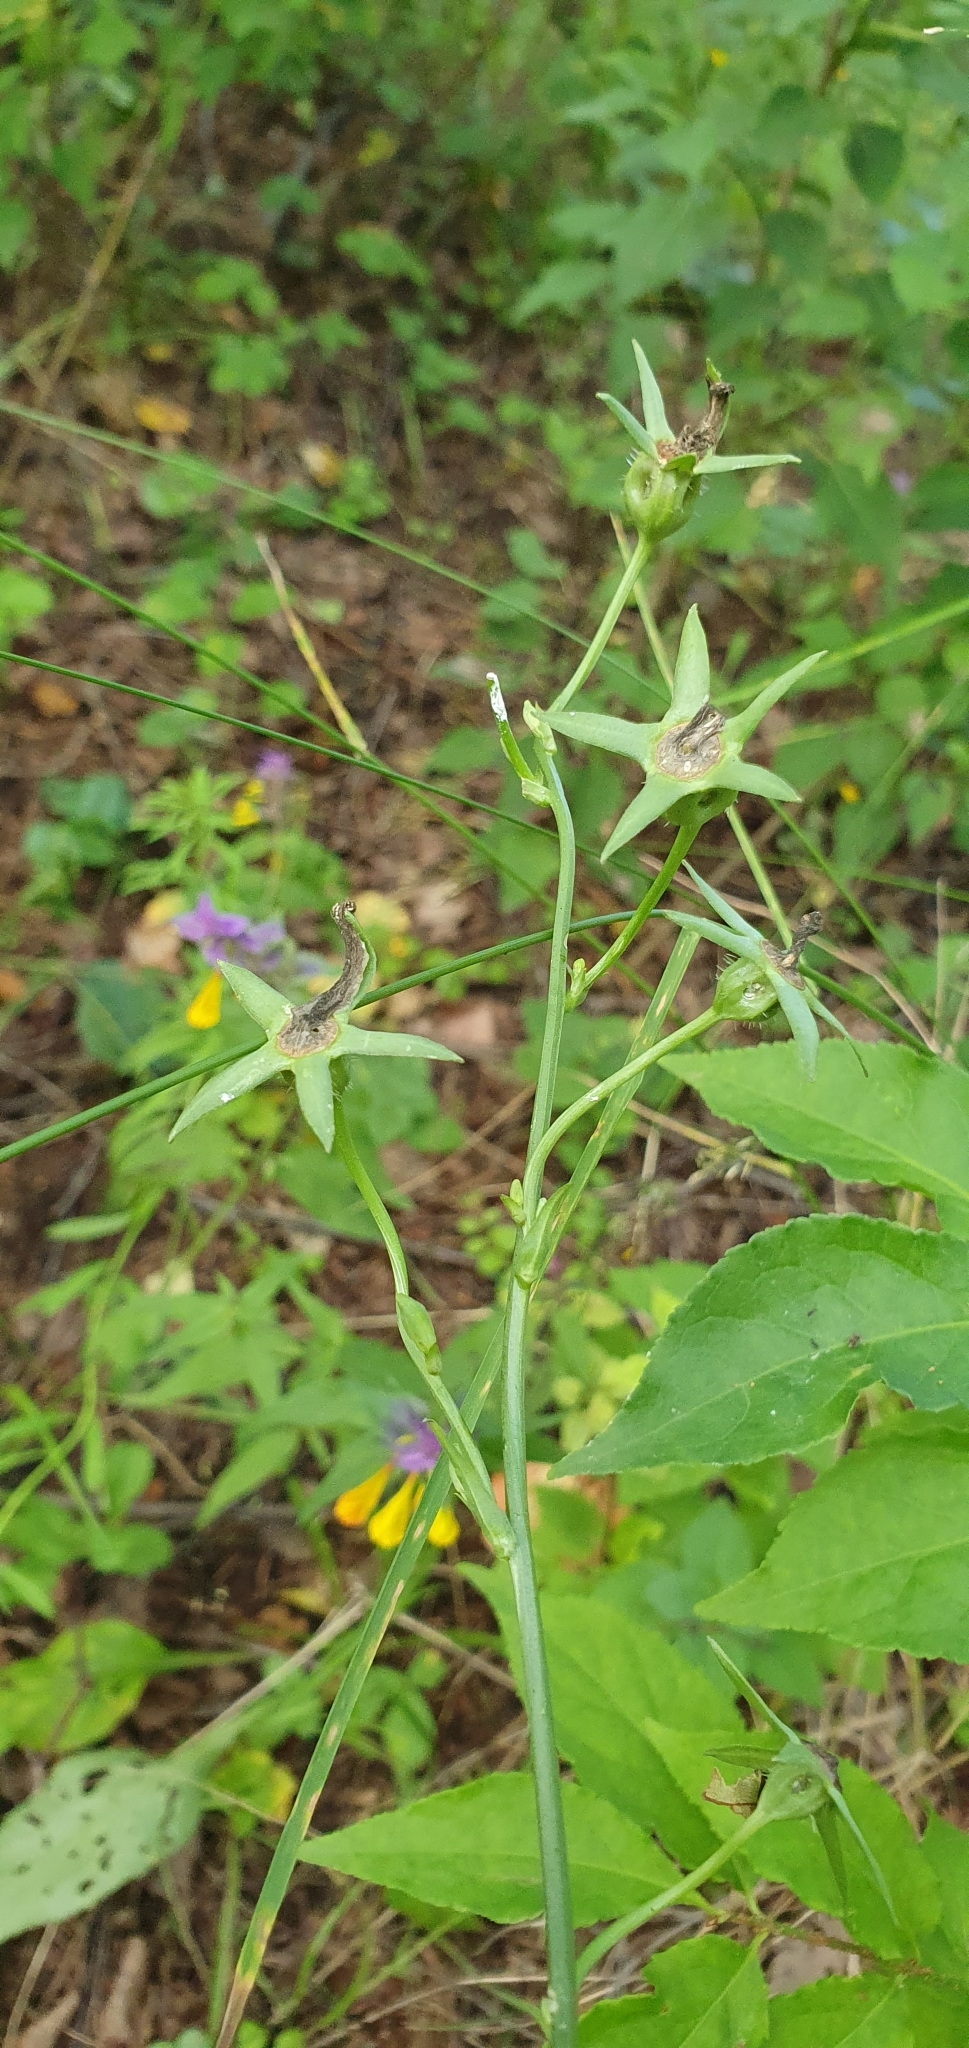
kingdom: Plantae
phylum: Tracheophyta
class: Magnoliopsida
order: Asterales
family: Campanulaceae
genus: Campanula
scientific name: Campanula persicifolia
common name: Peach-leaved bellflower
